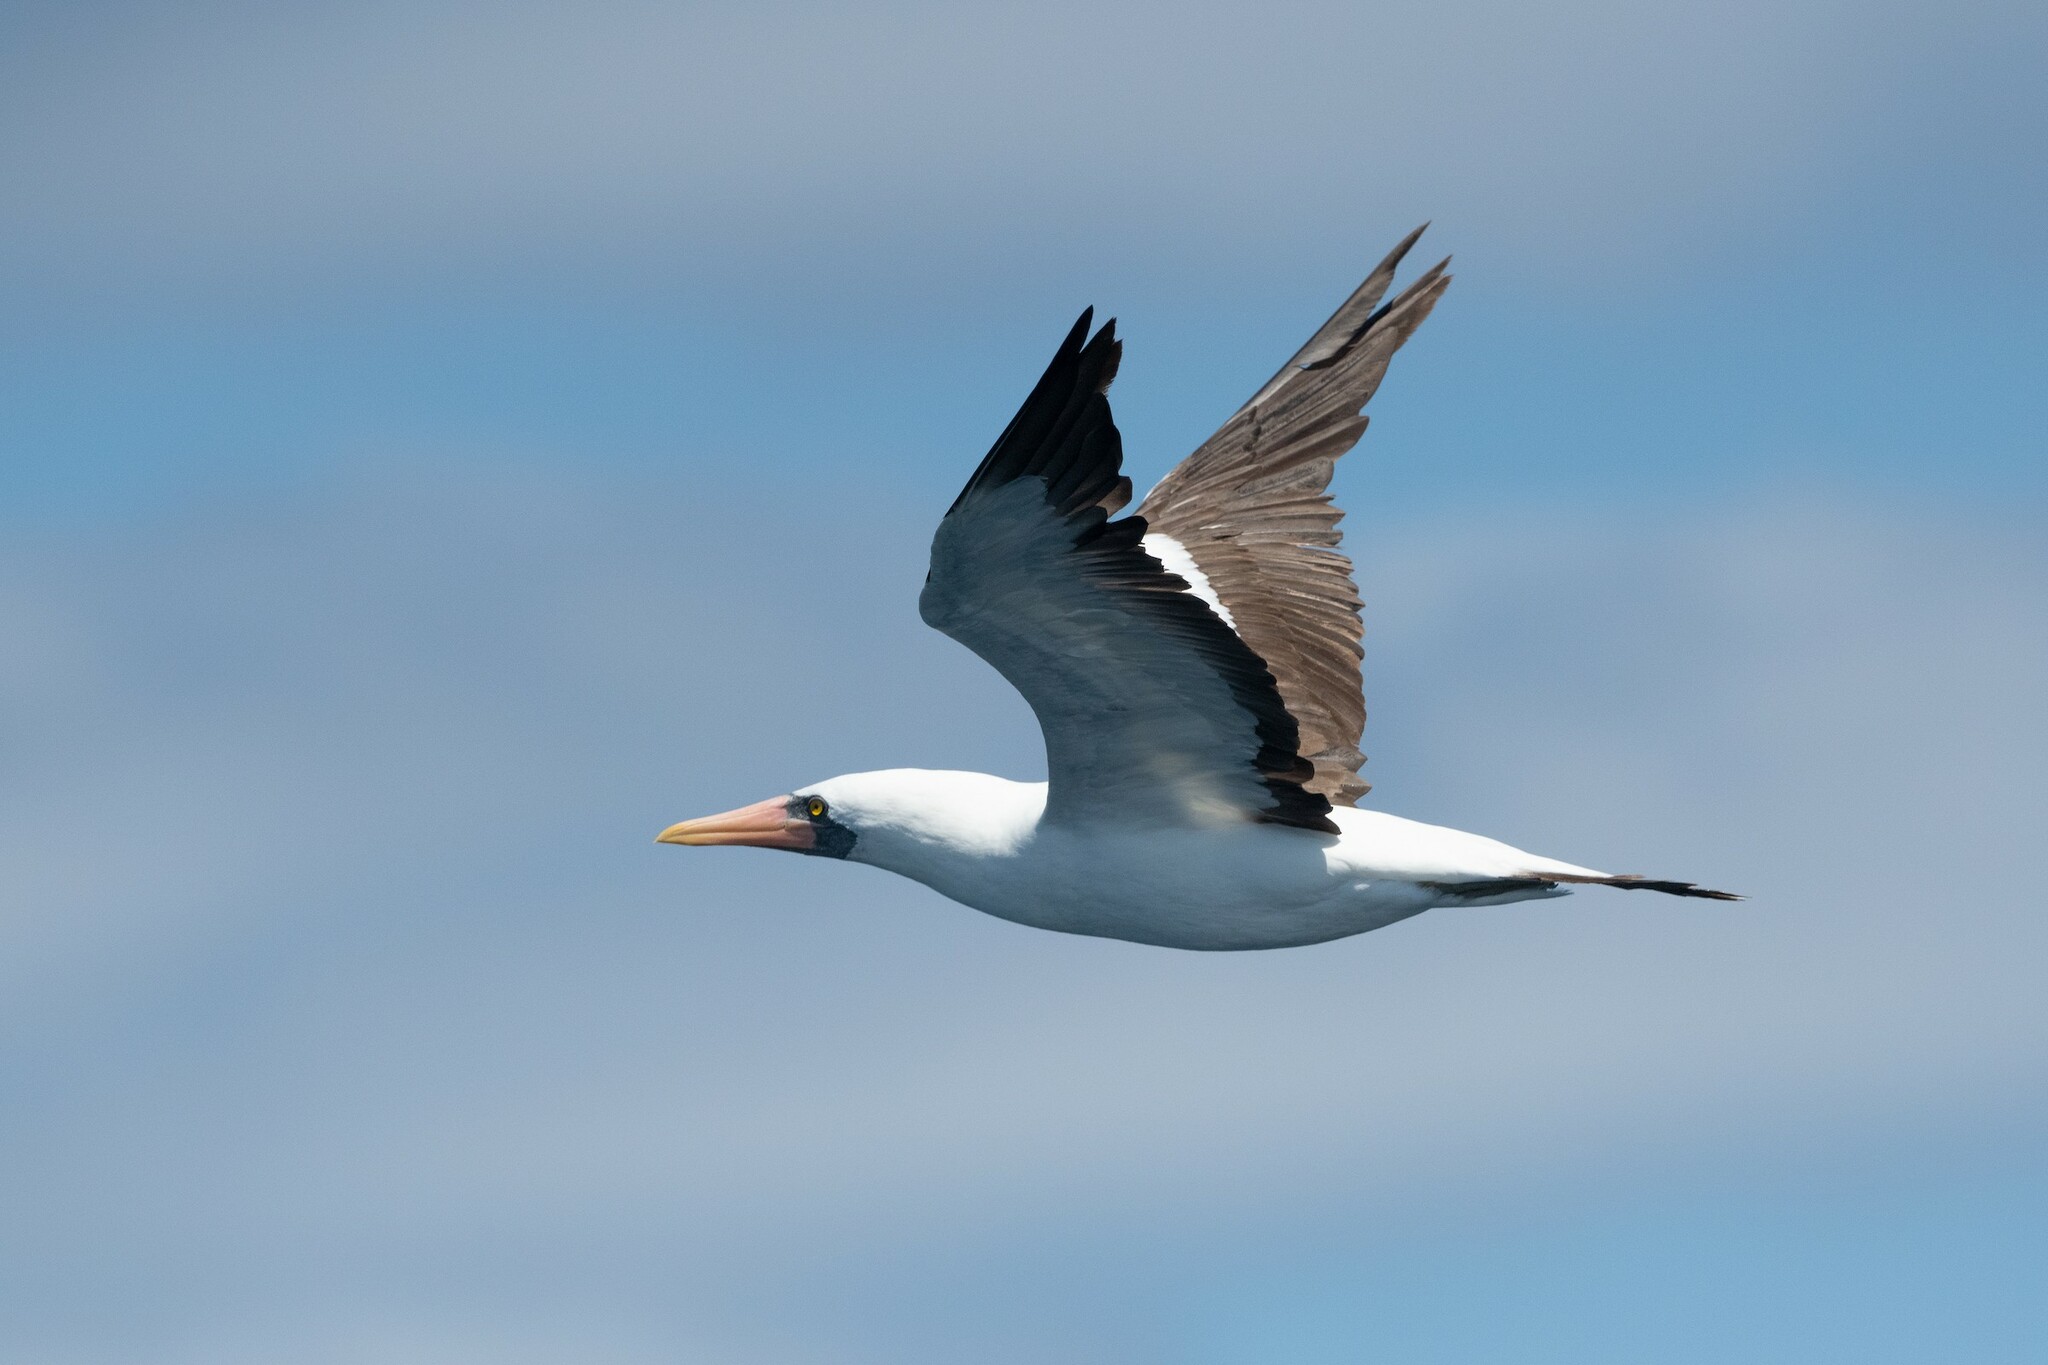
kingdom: Animalia
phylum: Chordata
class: Aves
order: Suliformes
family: Sulidae
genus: Sula
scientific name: Sula granti
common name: Nazca booby
